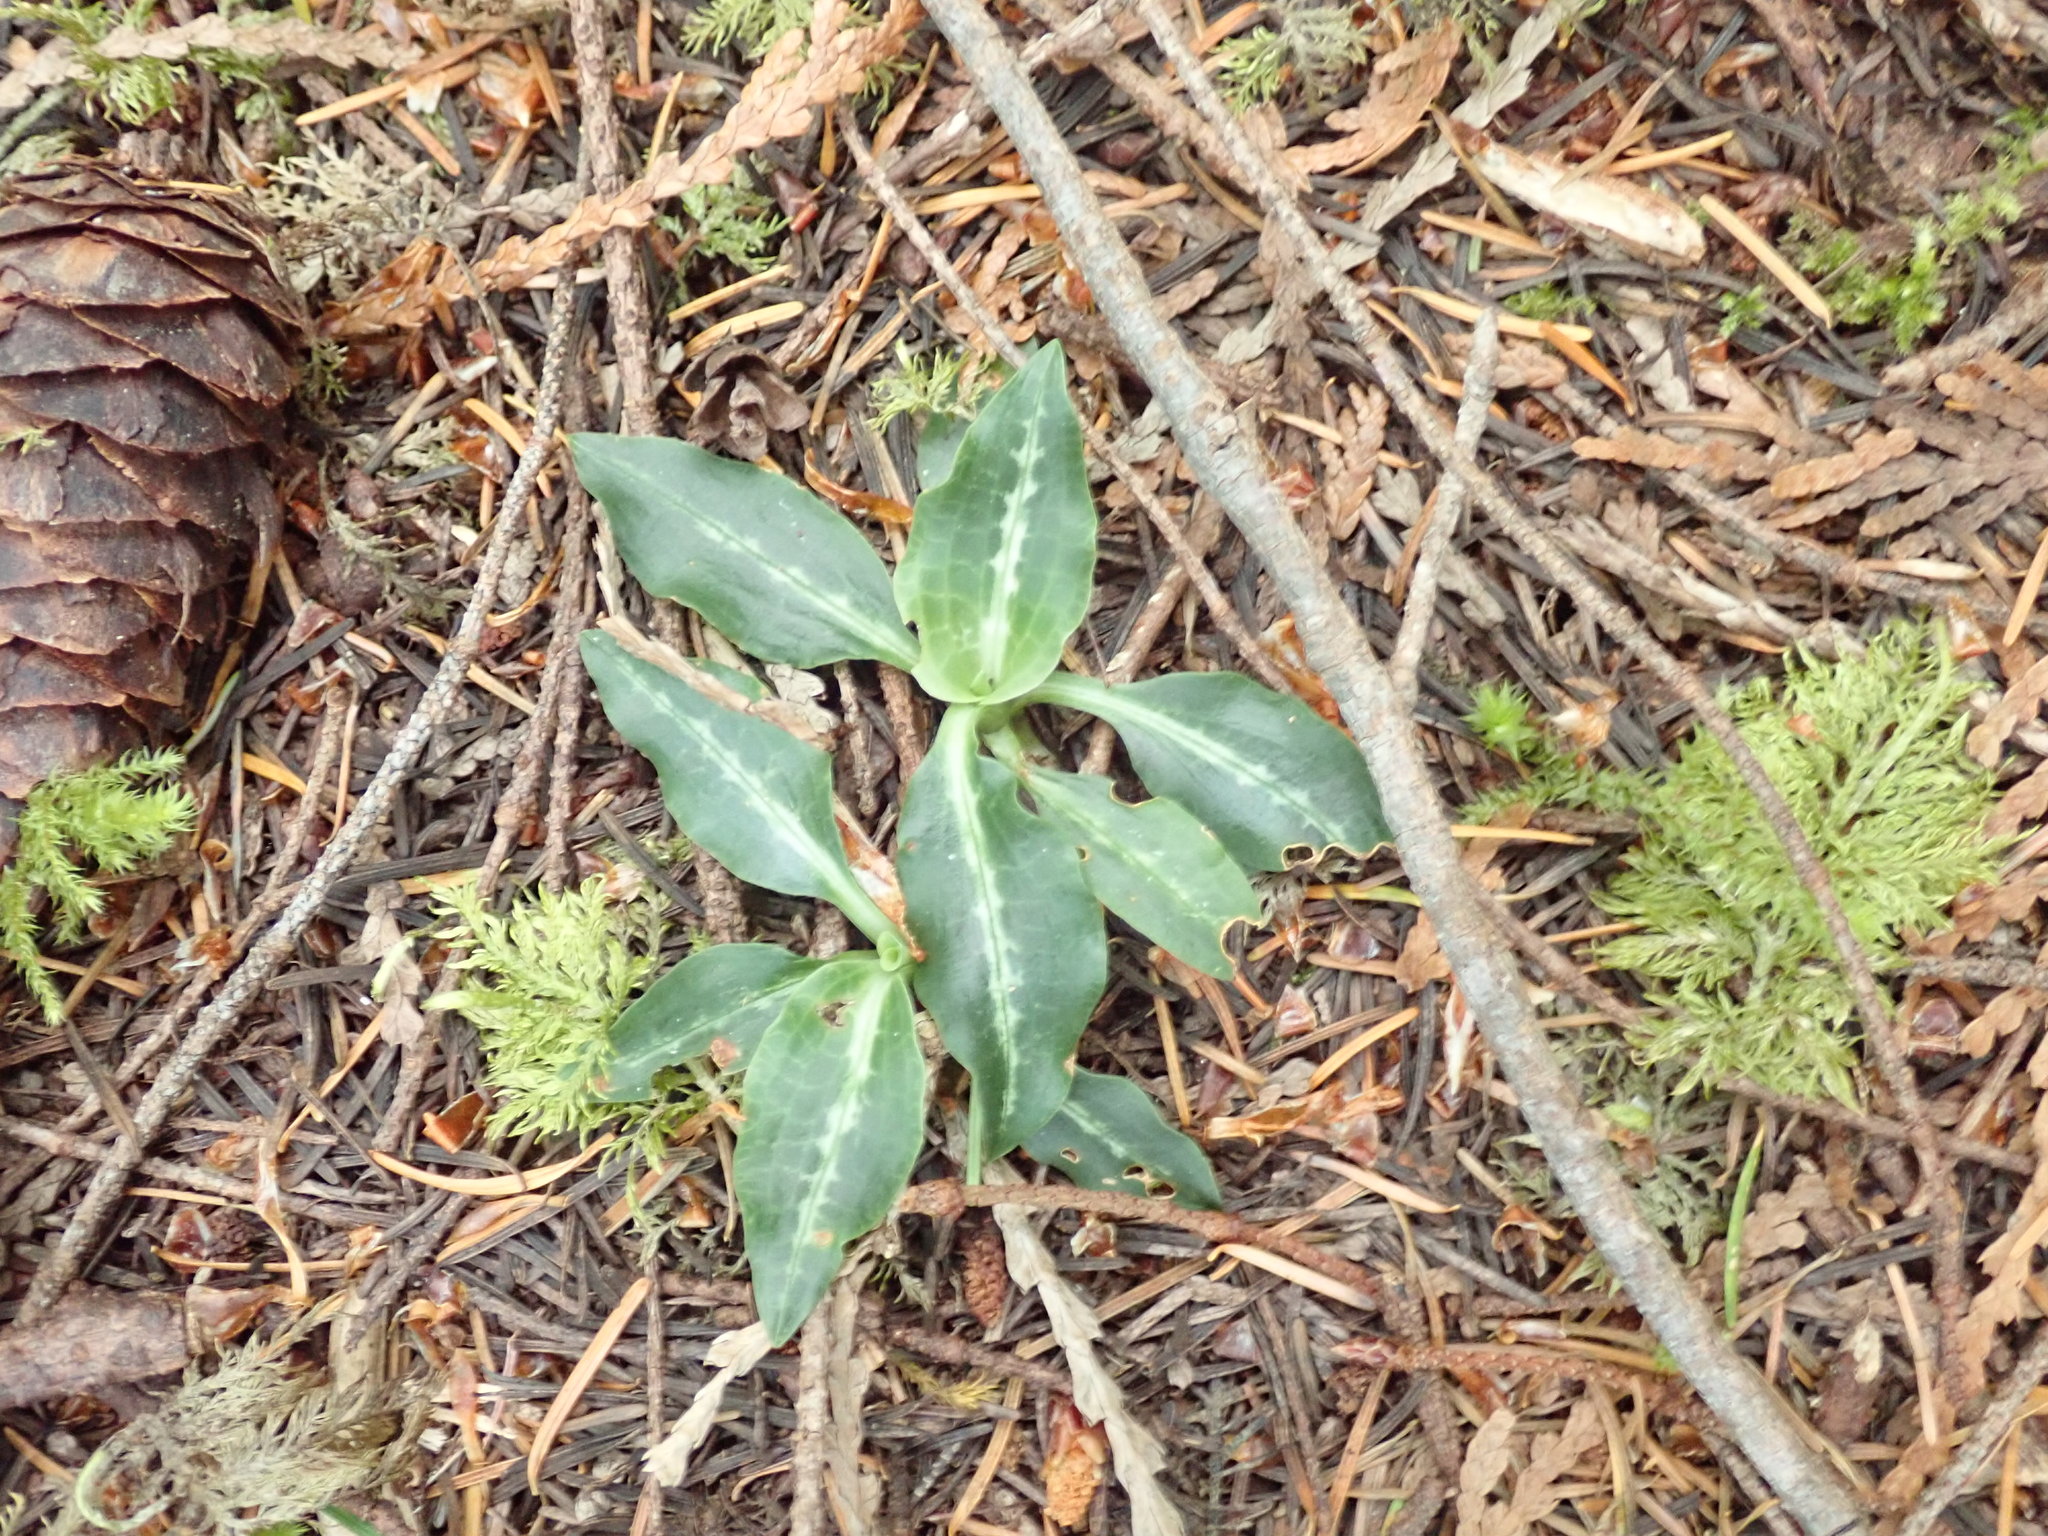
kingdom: Plantae
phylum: Tracheophyta
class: Liliopsida
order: Asparagales
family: Orchidaceae
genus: Goodyera
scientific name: Goodyera oblongifolia
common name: Giant rattlesnake-plantain
